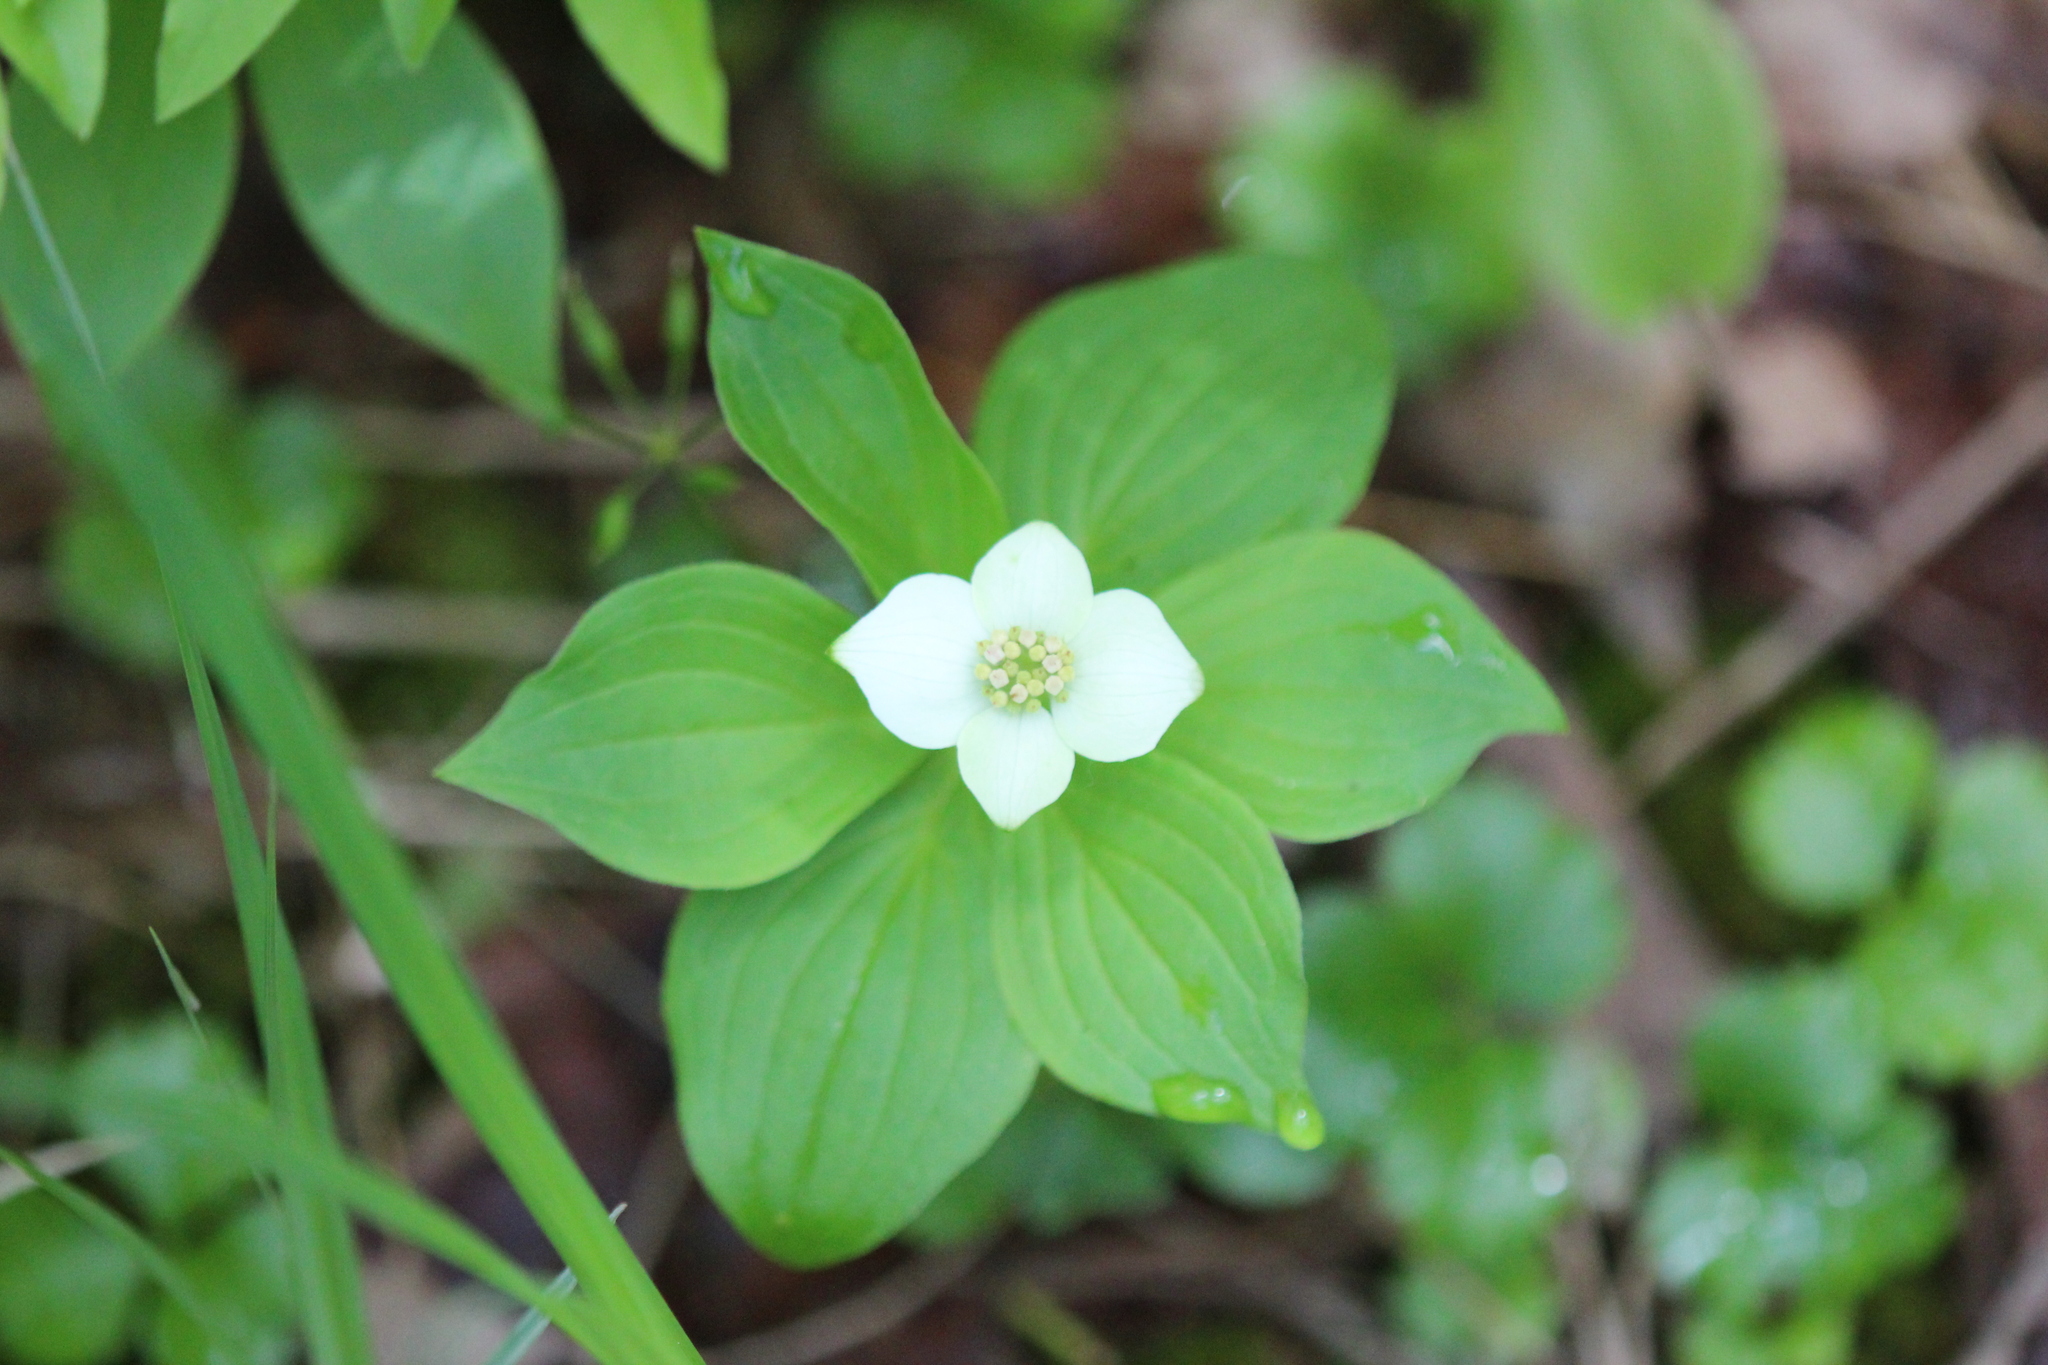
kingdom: Plantae
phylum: Tracheophyta
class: Magnoliopsida
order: Cornales
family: Cornaceae
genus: Cornus
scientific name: Cornus canadensis
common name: Creeping dogwood
